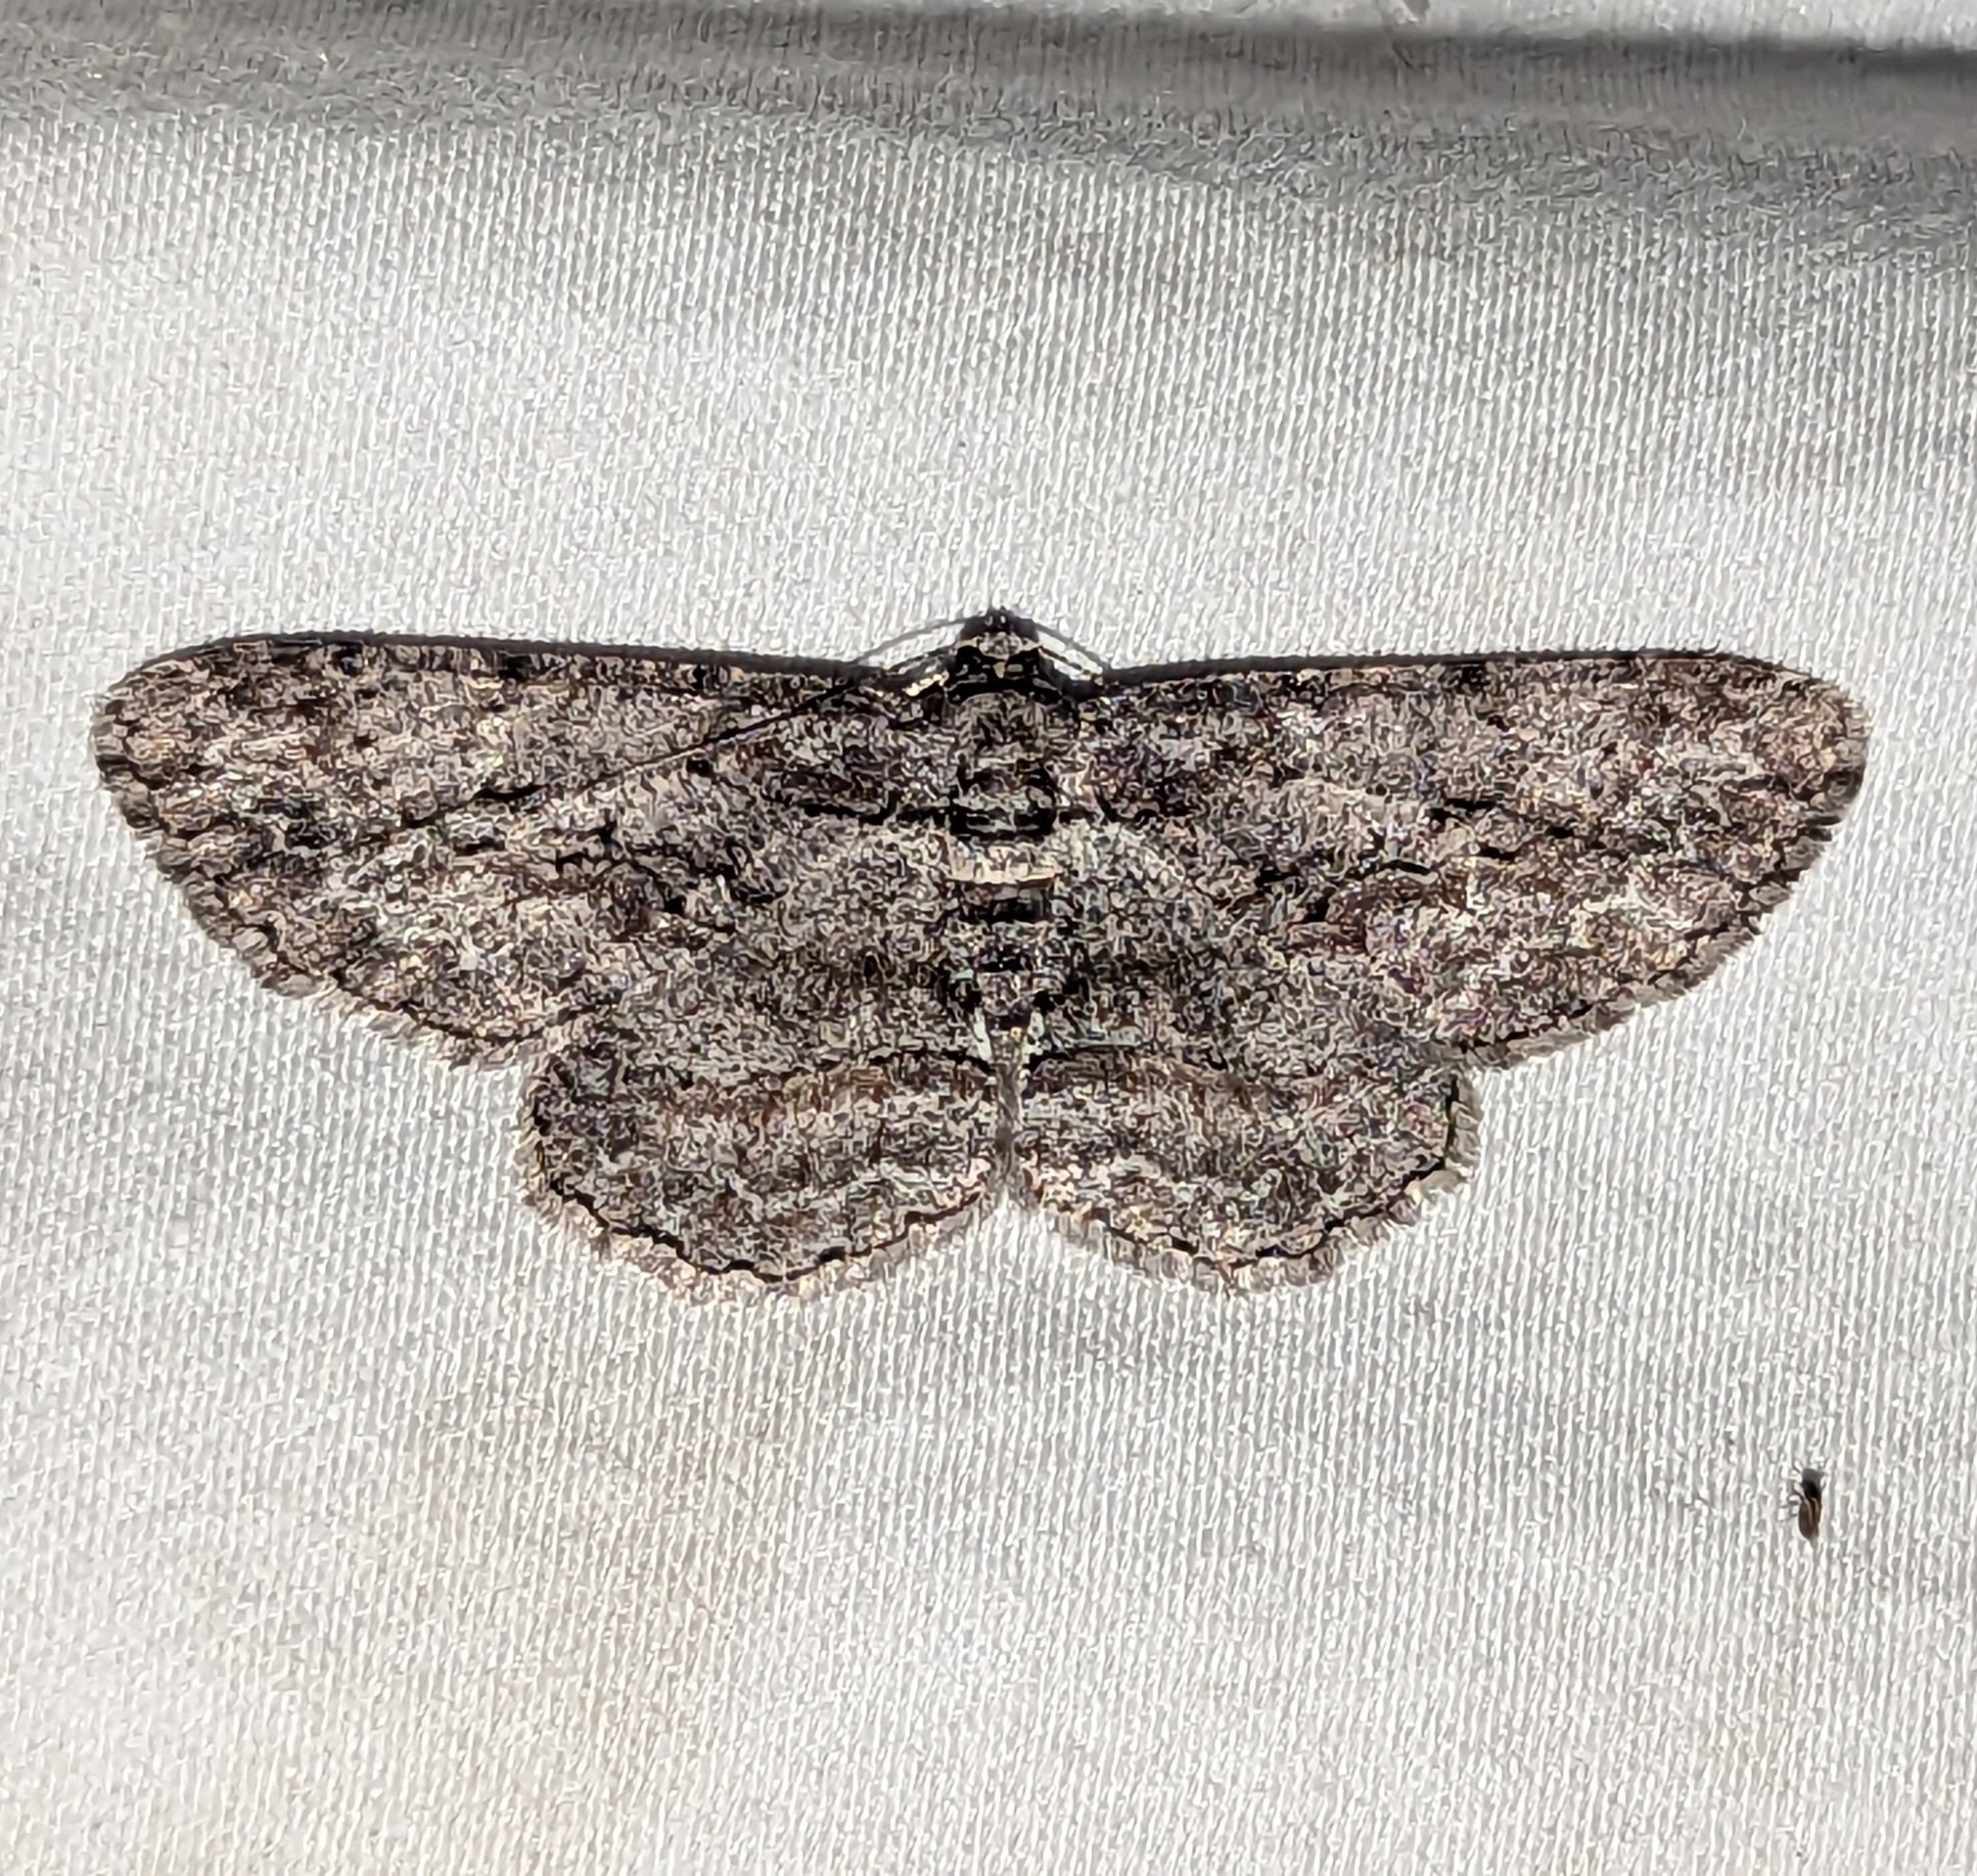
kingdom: Animalia
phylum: Arthropoda
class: Insecta
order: Lepidoptera
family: Geometridae
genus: Anavitrinella
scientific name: Anavitrinella pampinaria
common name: Common gray
